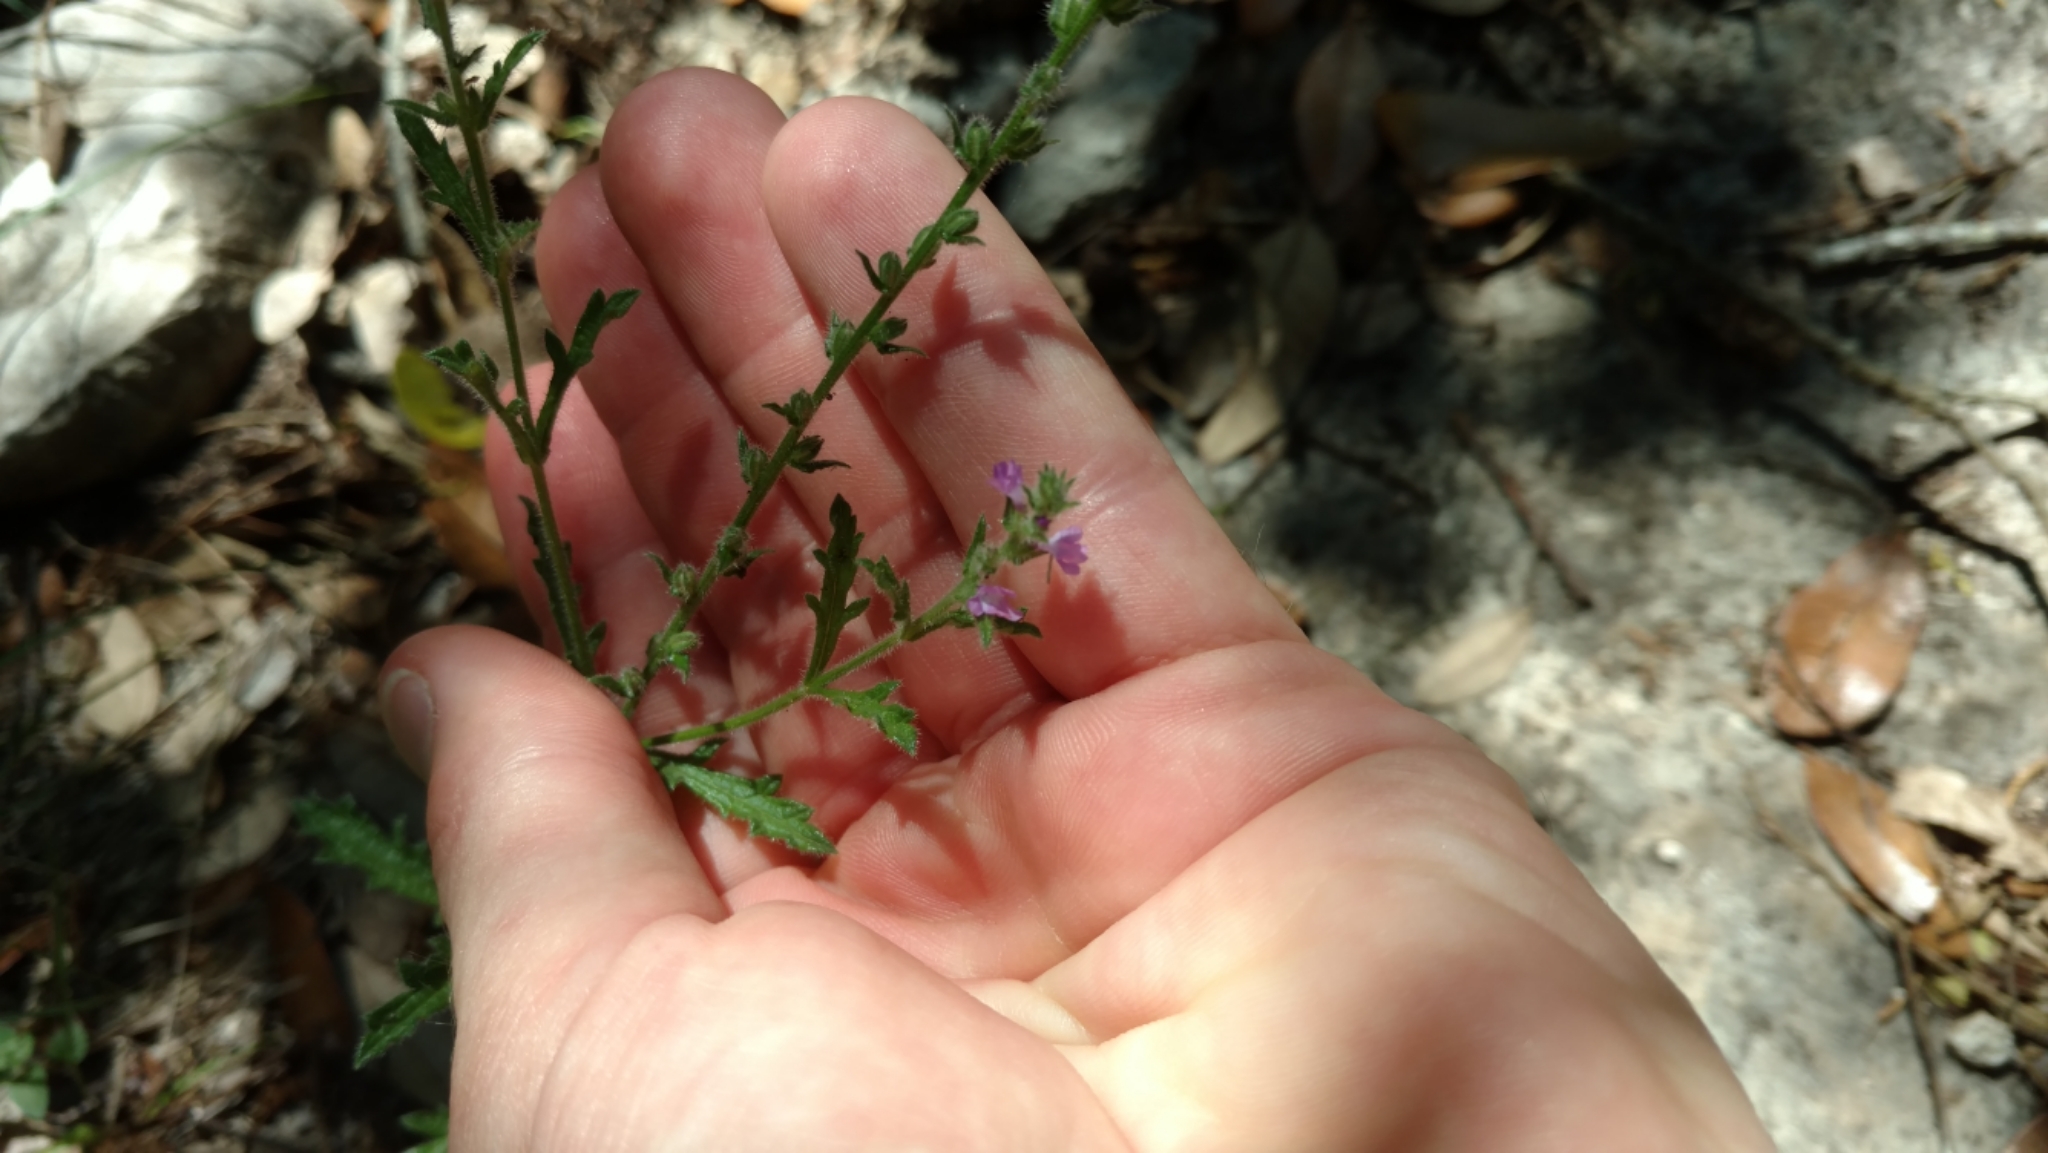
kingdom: Plantae
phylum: Tracheophyta
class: Magnoliopsida
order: Lamiales
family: Verbenaceae
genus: Verbena
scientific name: Verbena canescens
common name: Gray vervain
